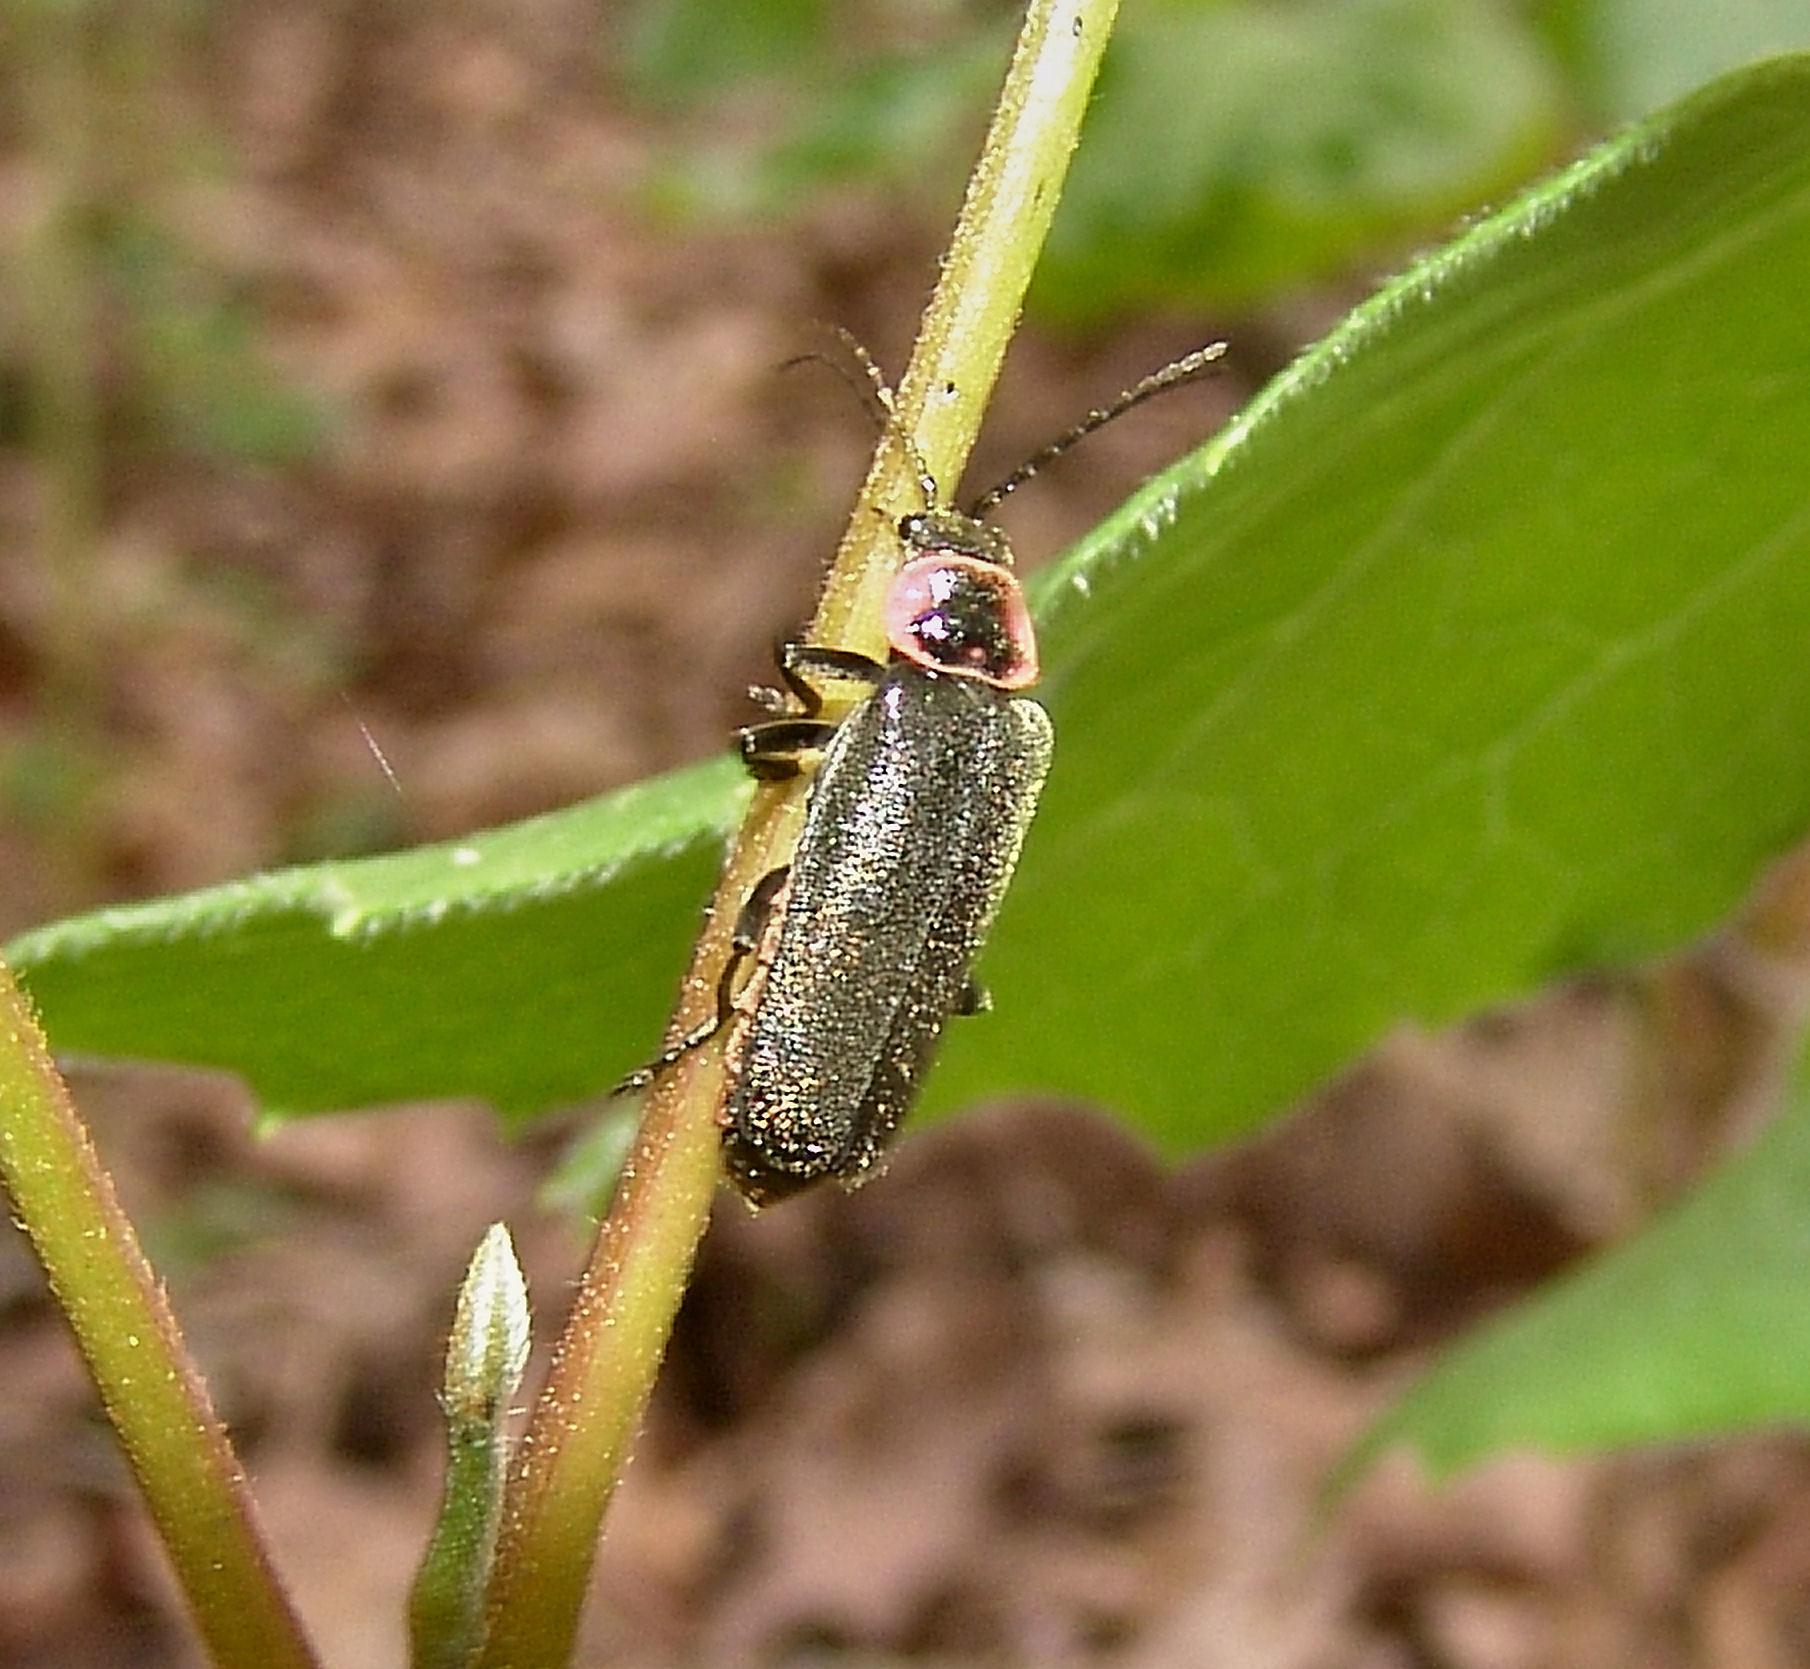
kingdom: Animalia
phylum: Arthropoda
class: Insecta
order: Coleoptera
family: Cantharidae
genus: Atalantycha
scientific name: Atalantycha neglecta
